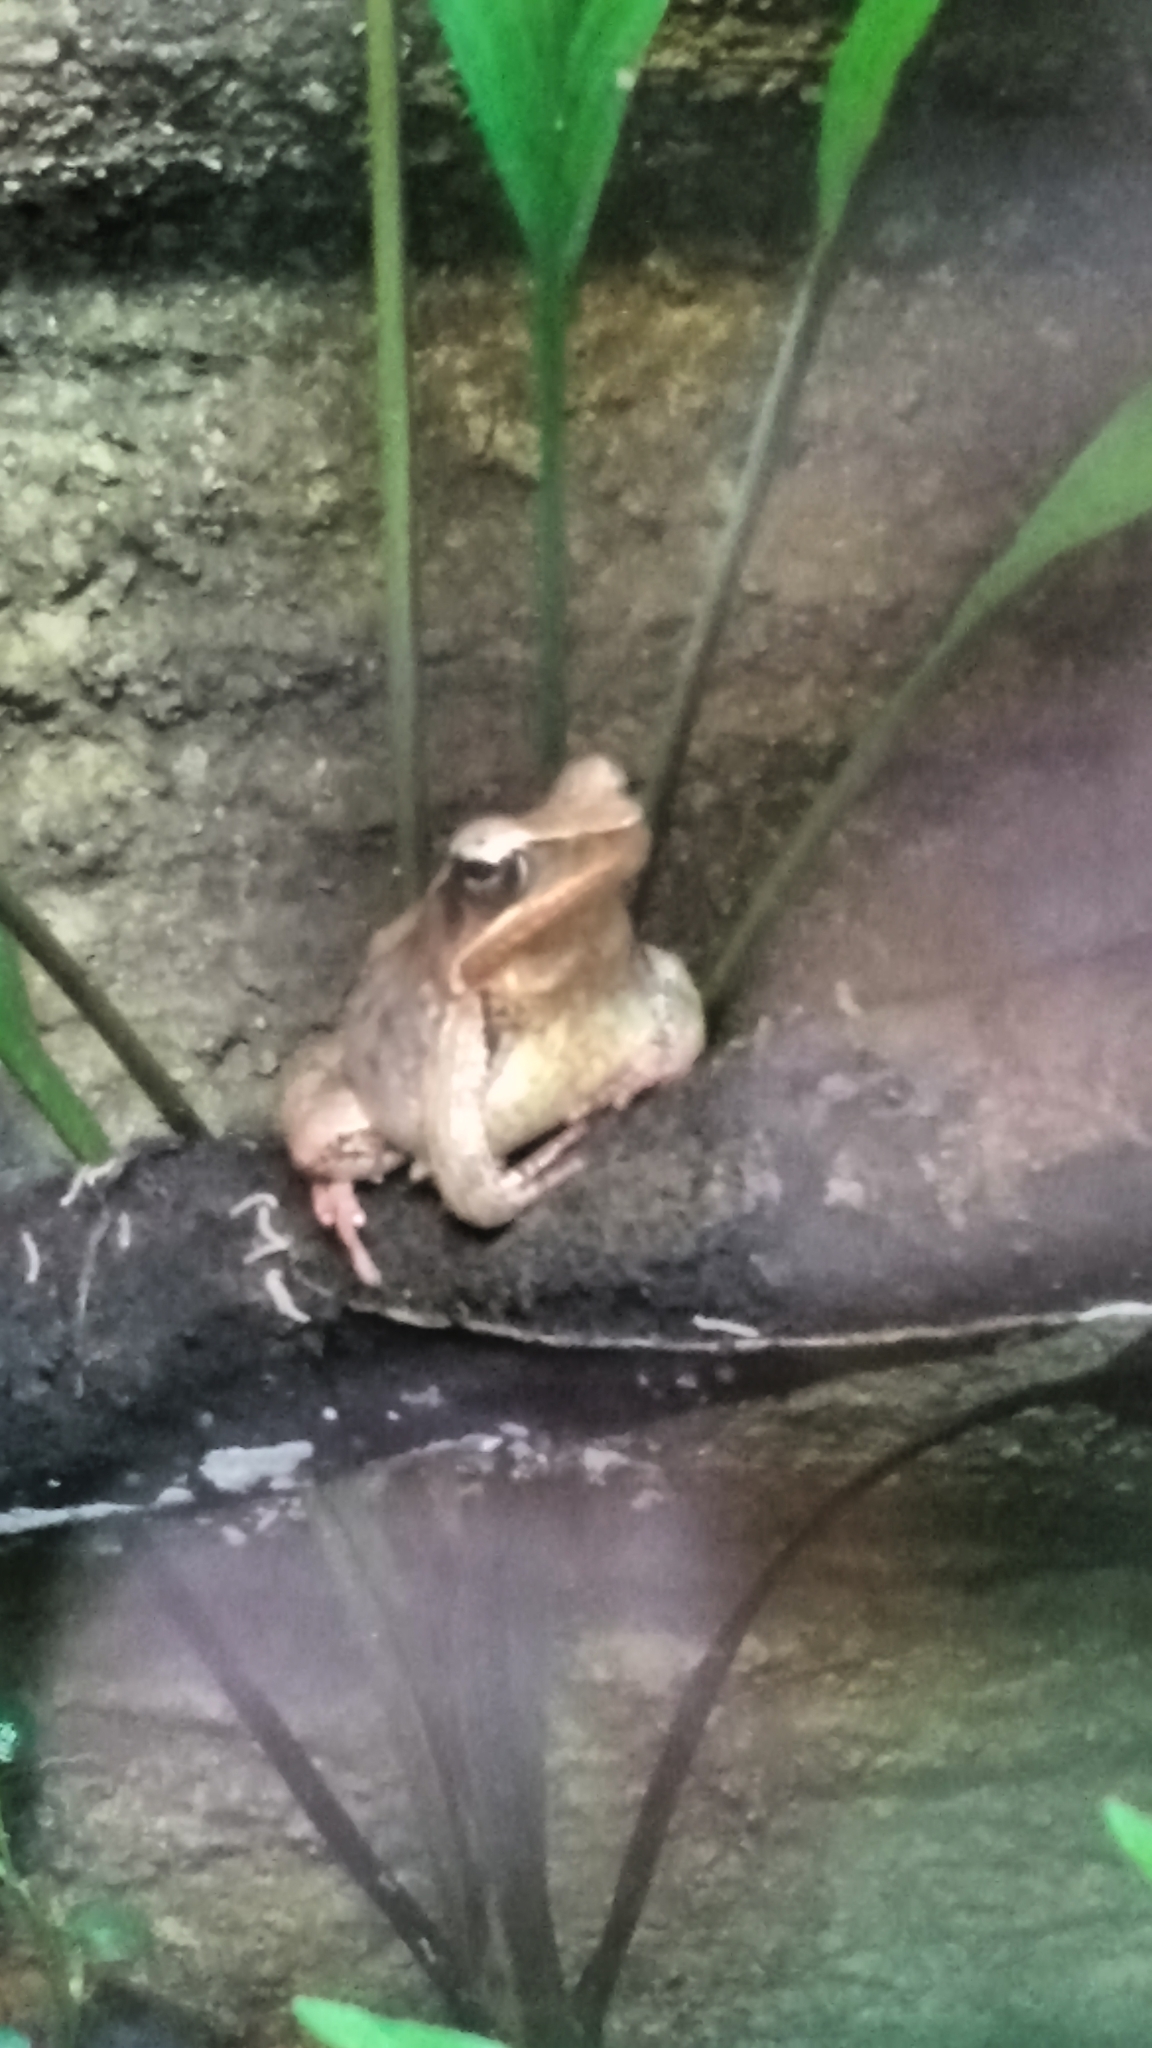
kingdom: Animalia
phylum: Chordata
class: Amphibia
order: Anura
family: Ranidae
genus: Lithobates
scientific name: Lithobates warszewitschii
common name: Warszewitsch's frog
